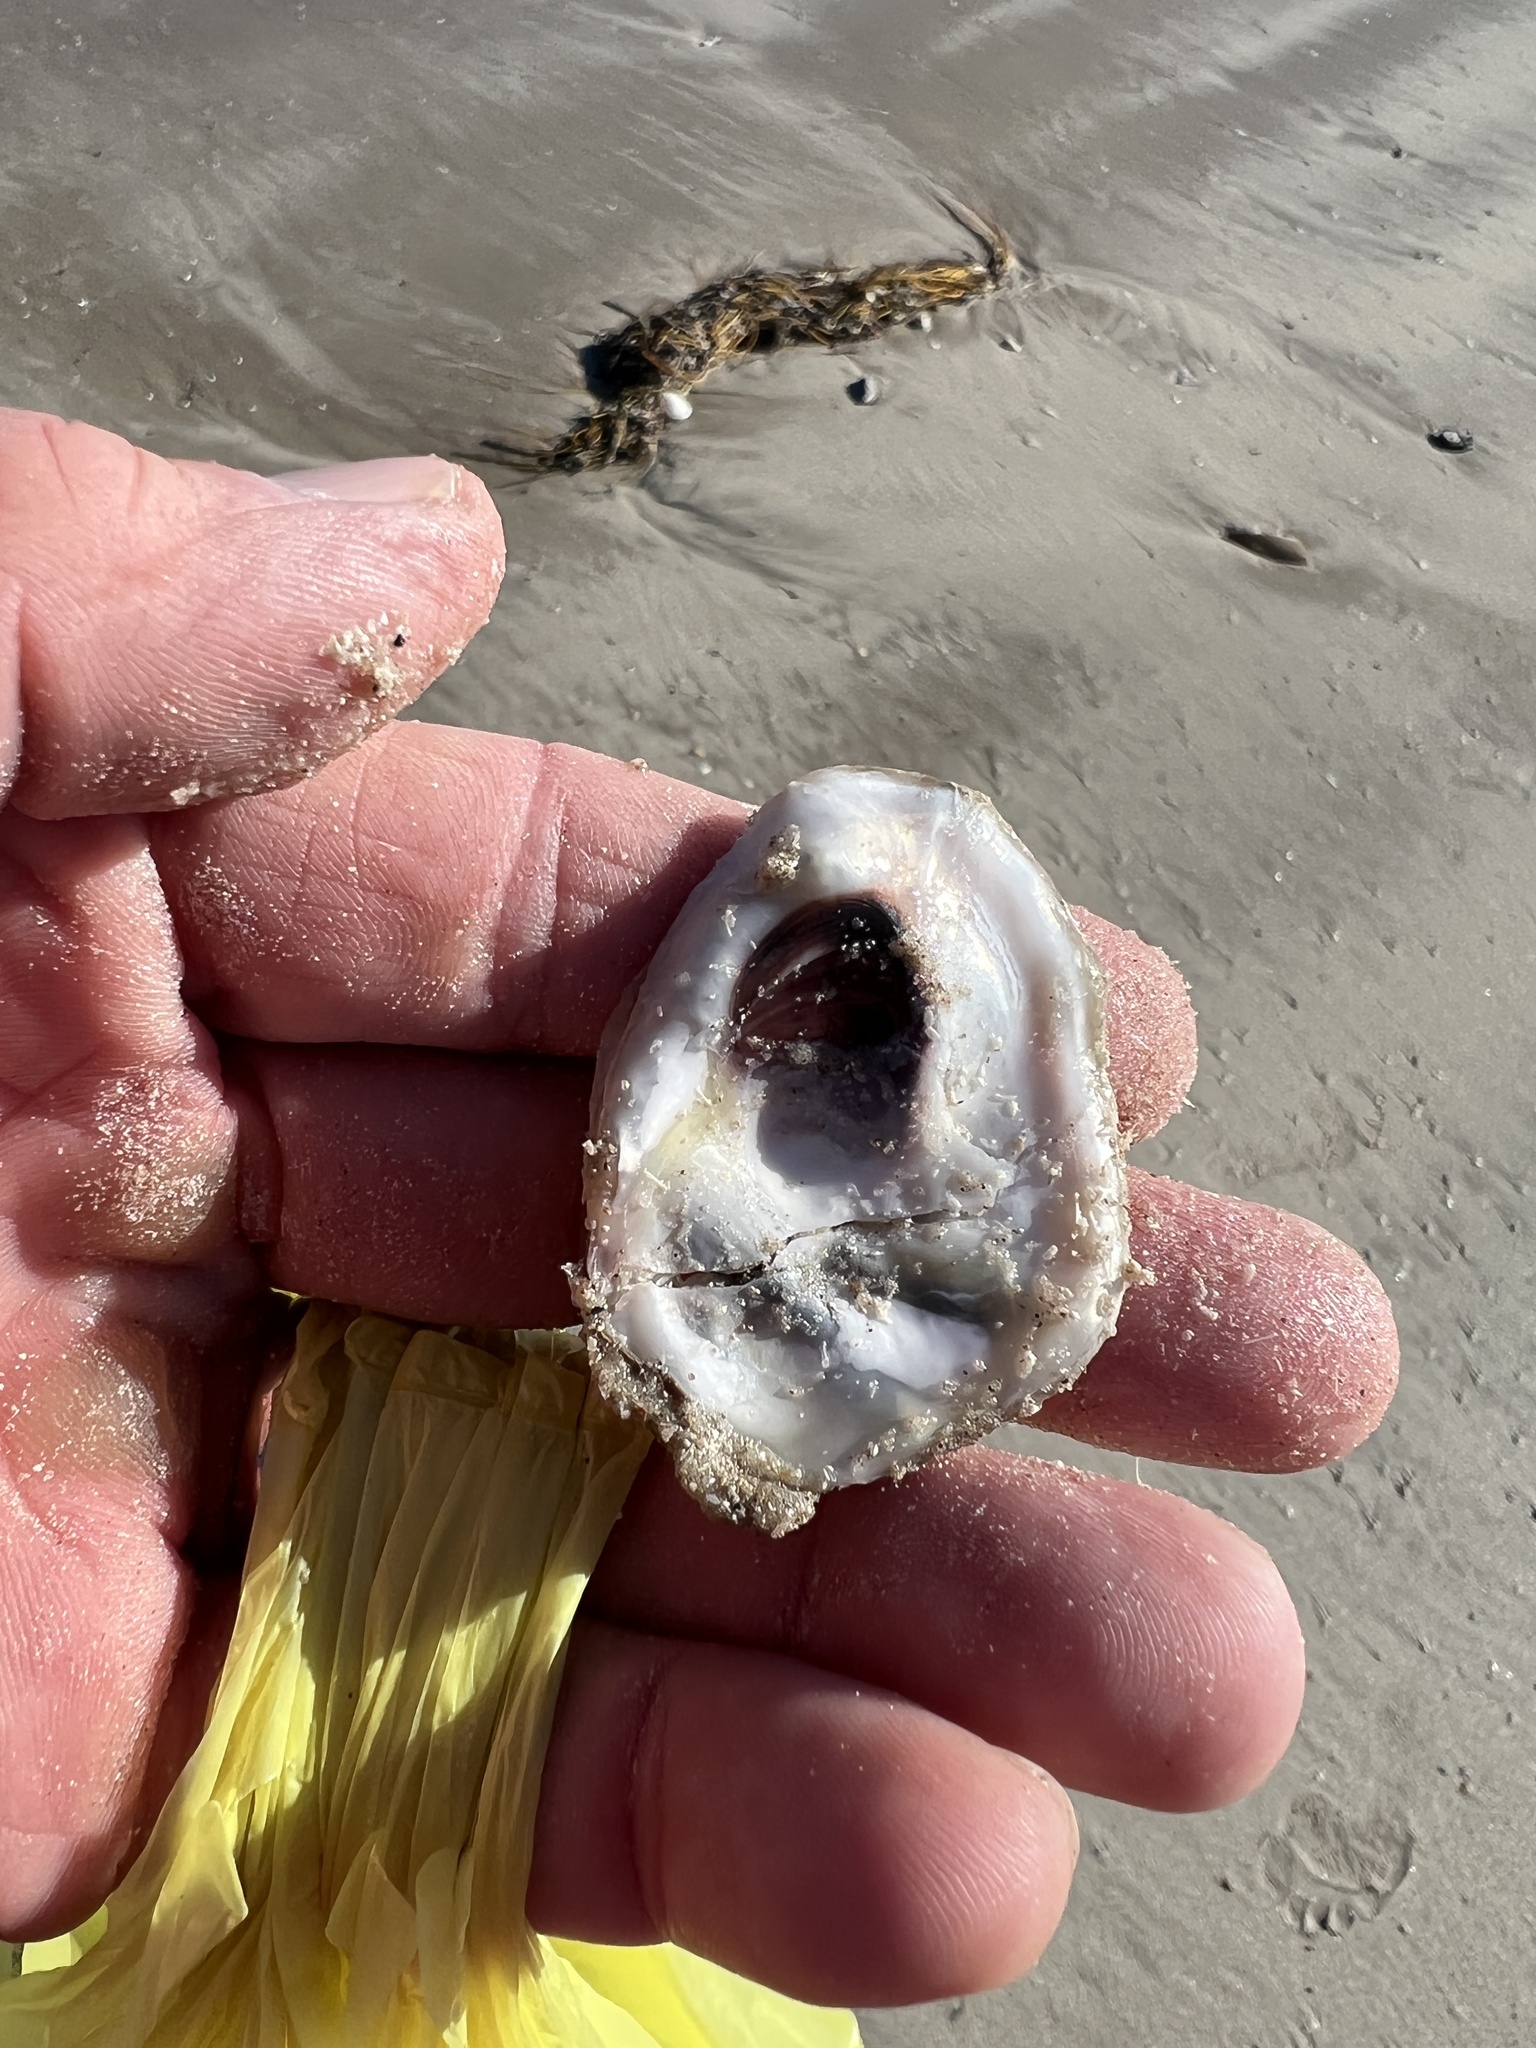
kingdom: Animalia
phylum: Mollusca
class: Bivalvia
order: Ostreida
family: Ostreidae
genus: Crassostrea
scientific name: Crassostrea virginica
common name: American oyster
